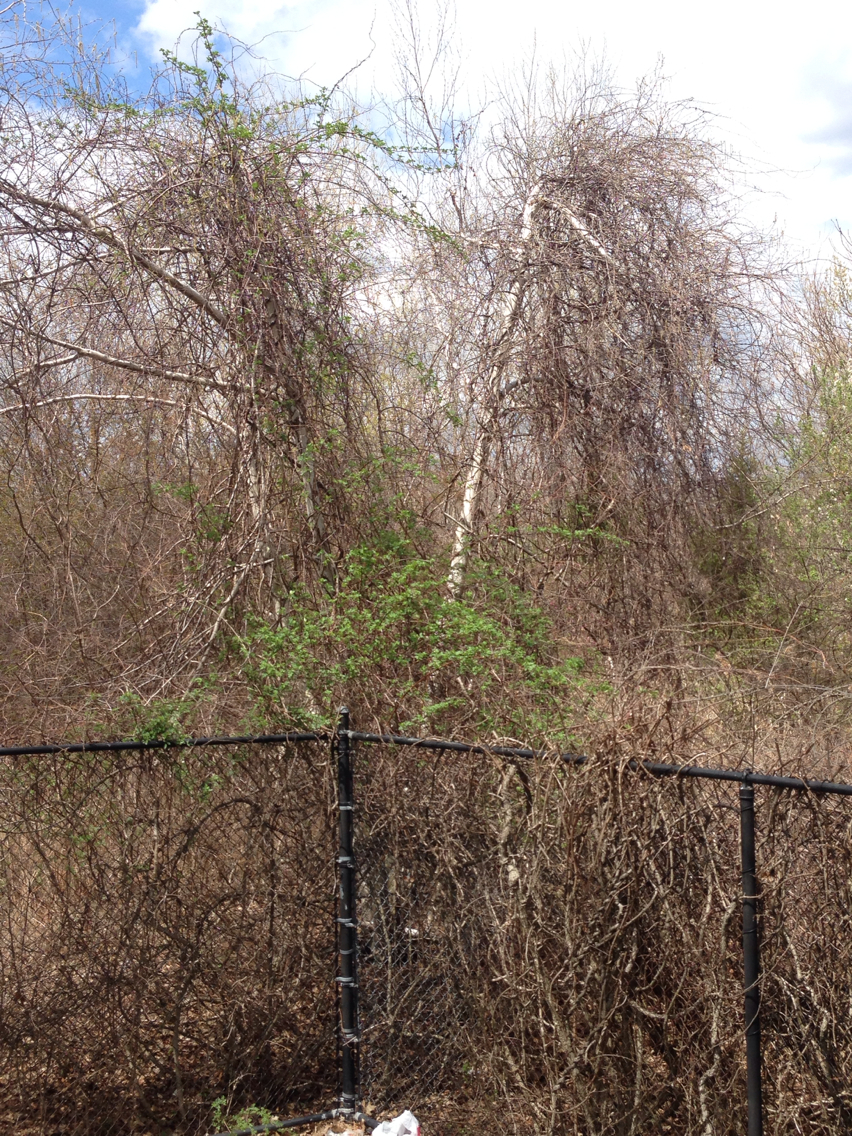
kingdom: Plantae
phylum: Tracheophyta
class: Magnoliopsida
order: Fagales
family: Betulaceae
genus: Betula
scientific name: Betula populifolia
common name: Fire birch
